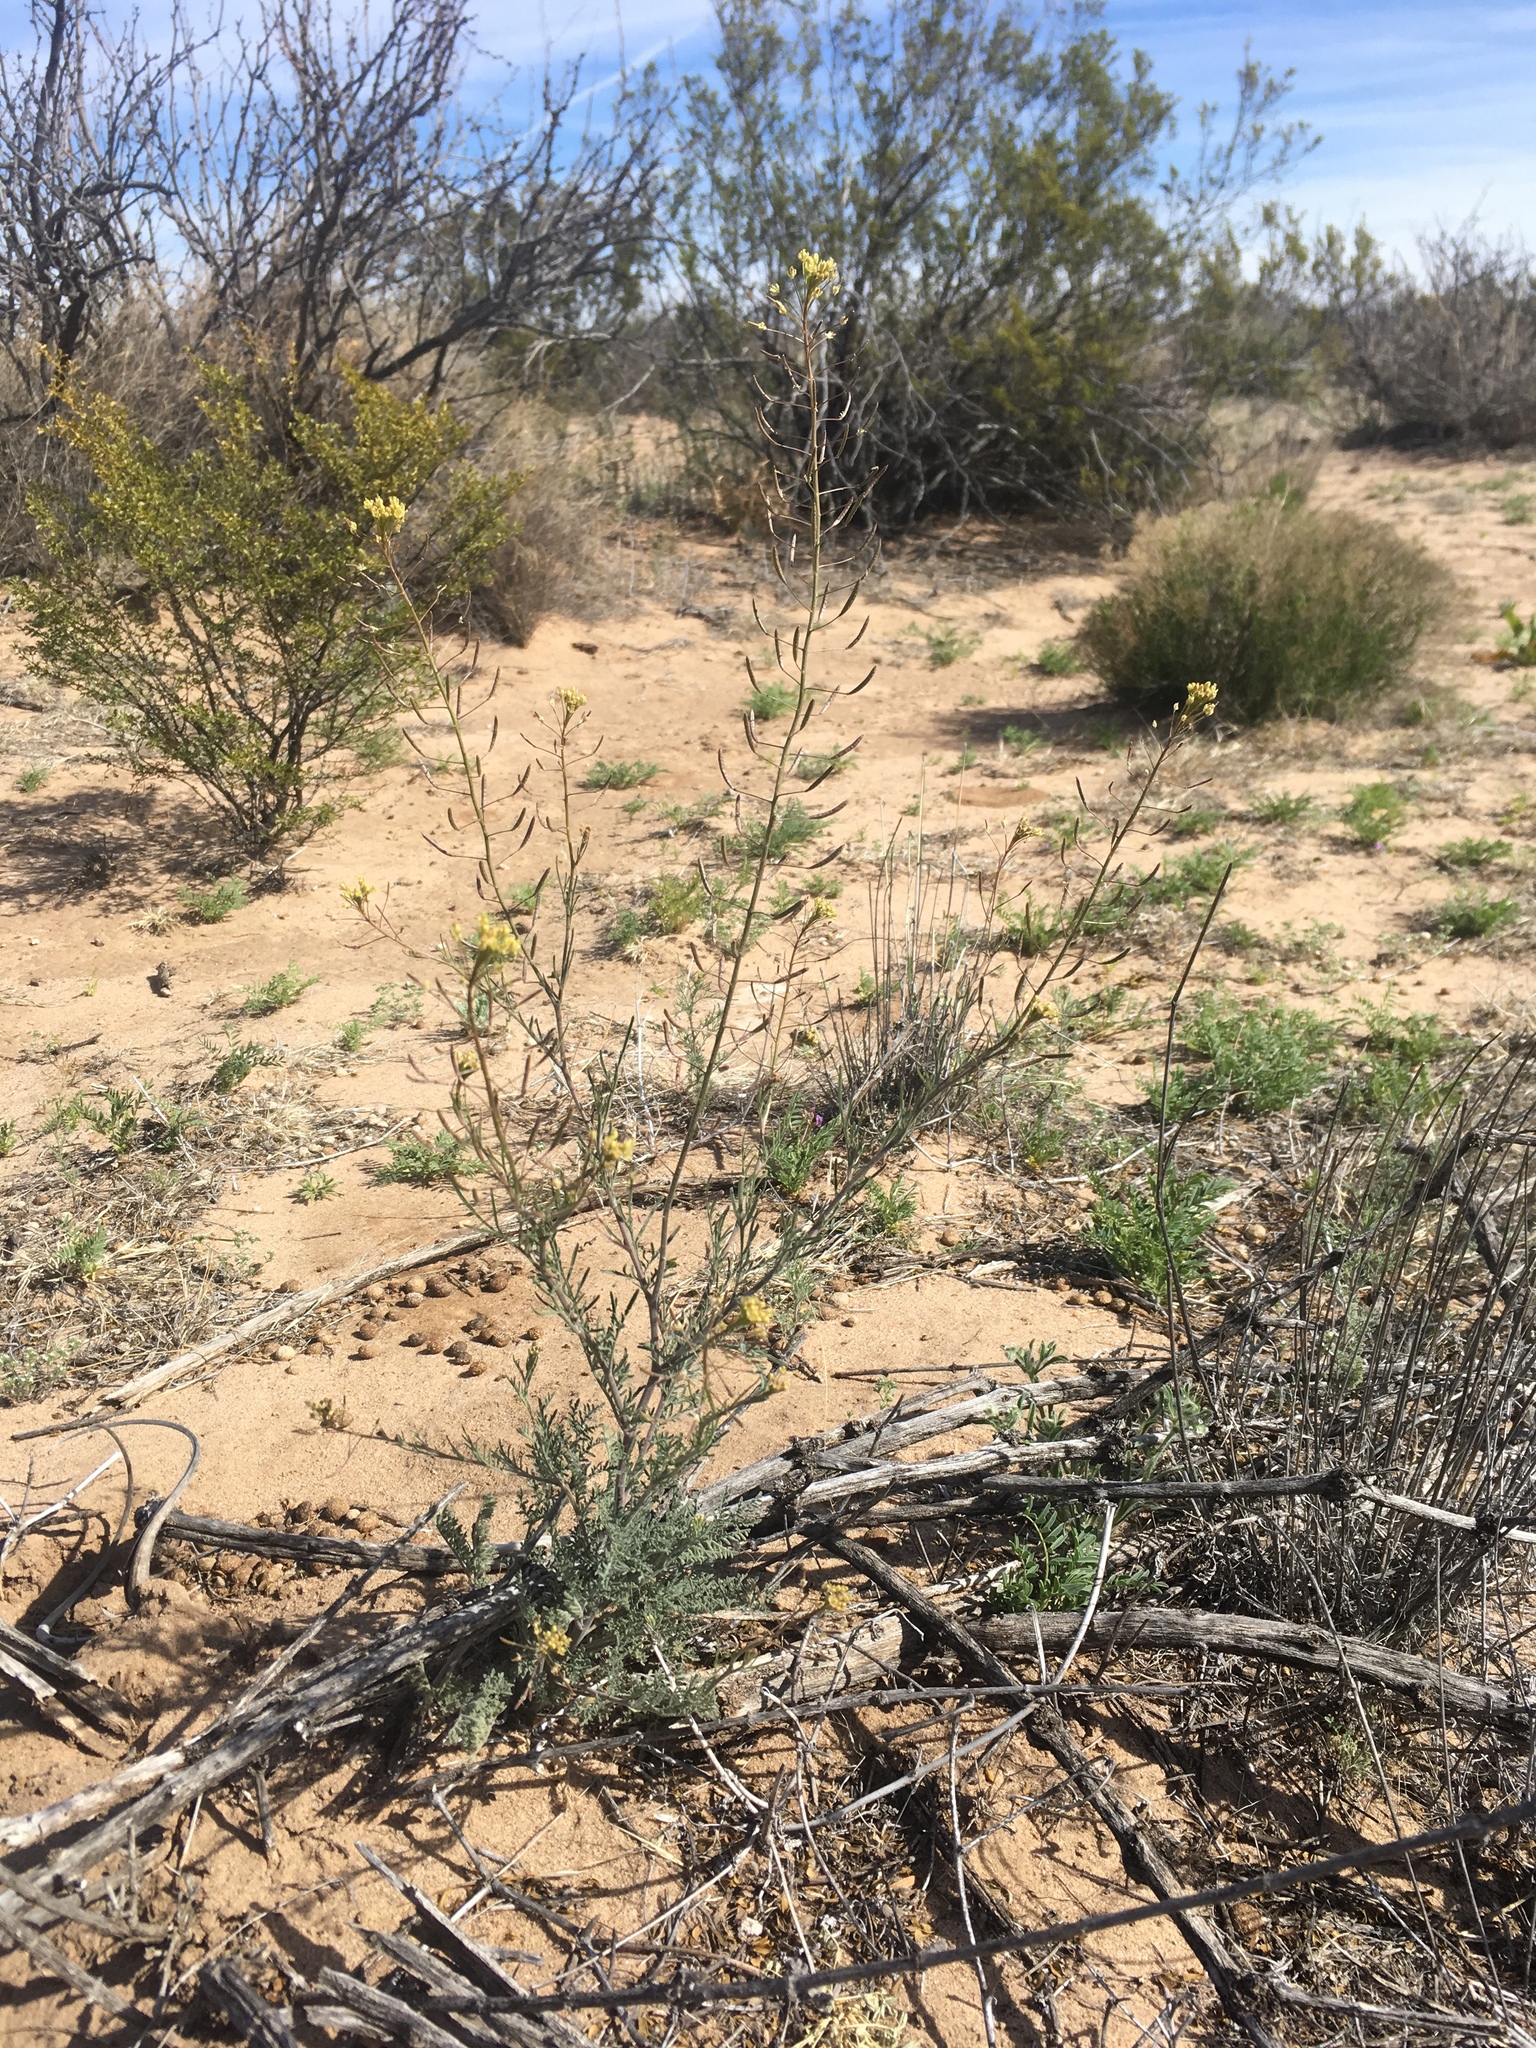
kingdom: Plantae
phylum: Tracheophyta
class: Magnoliopsida
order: Brassicales
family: Brassicaceae
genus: Descurainia
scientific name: Descurainia pinnata
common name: Western tansy mustard
